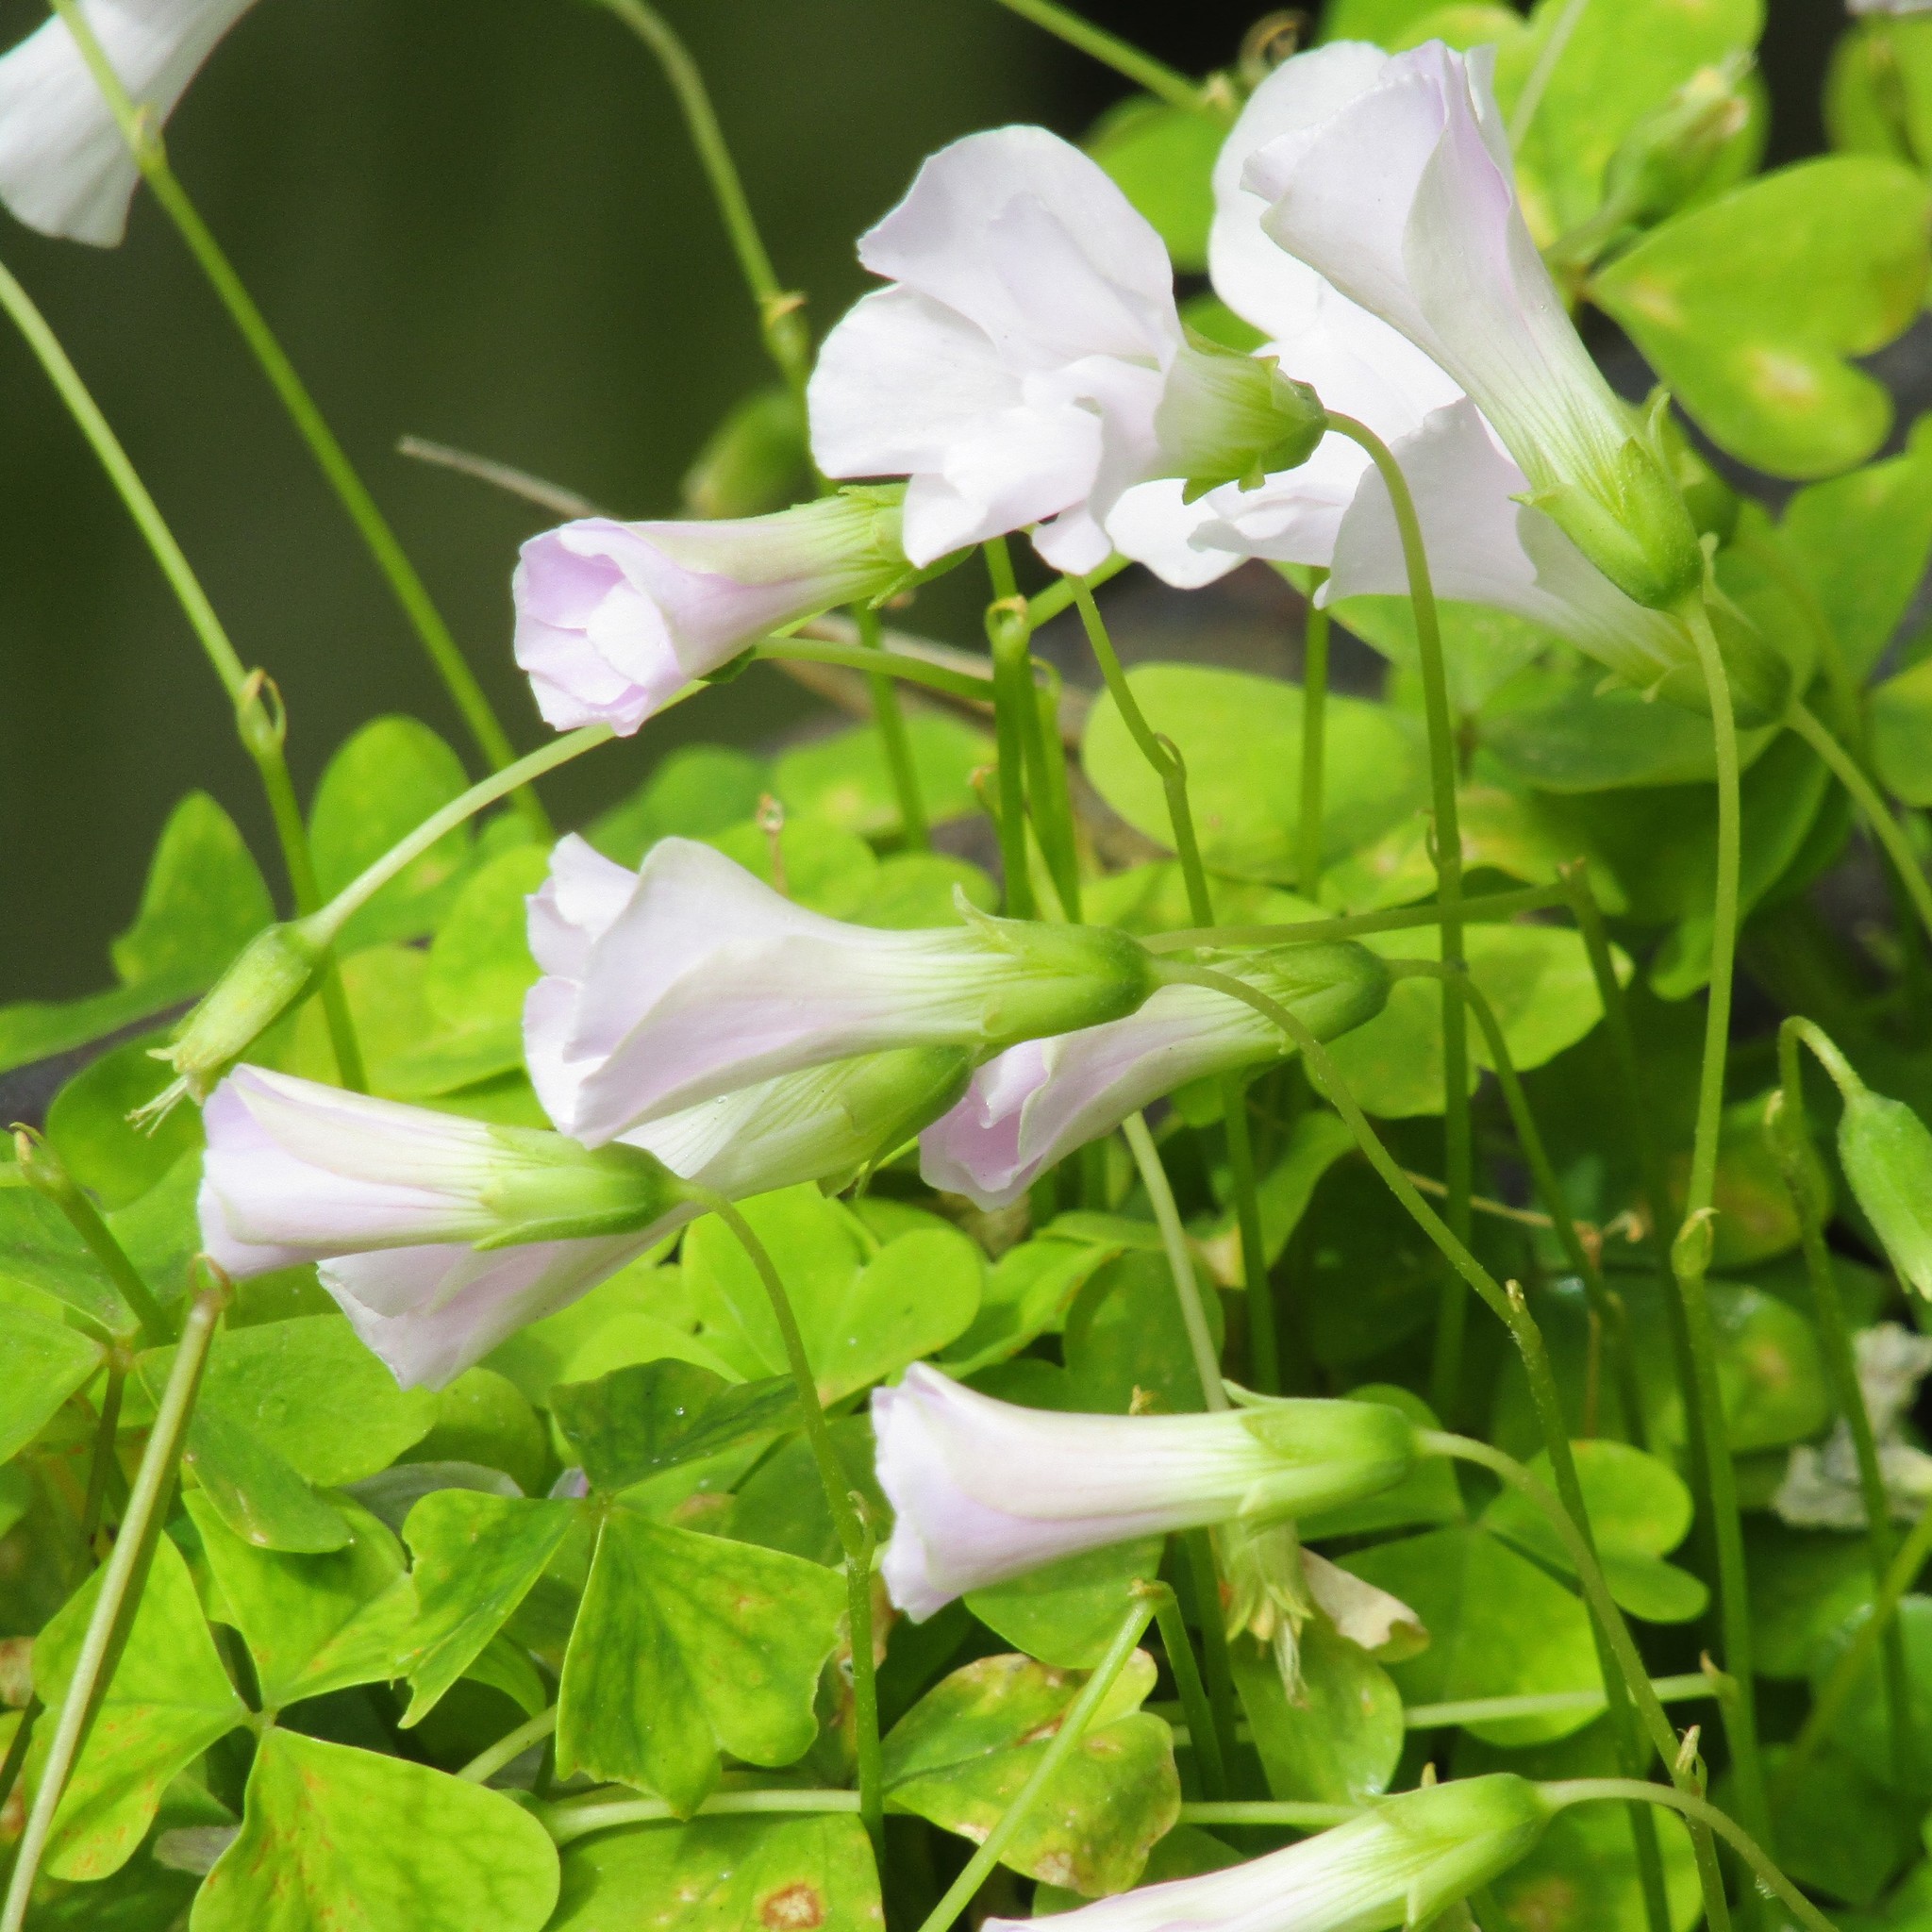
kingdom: Plantae
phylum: Tracheophyta
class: Magnoliopsida
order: Oxalidales
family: Oxalidaceae
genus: Oxalis
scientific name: Oxalis incarnata
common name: Pale pink-sorrel
